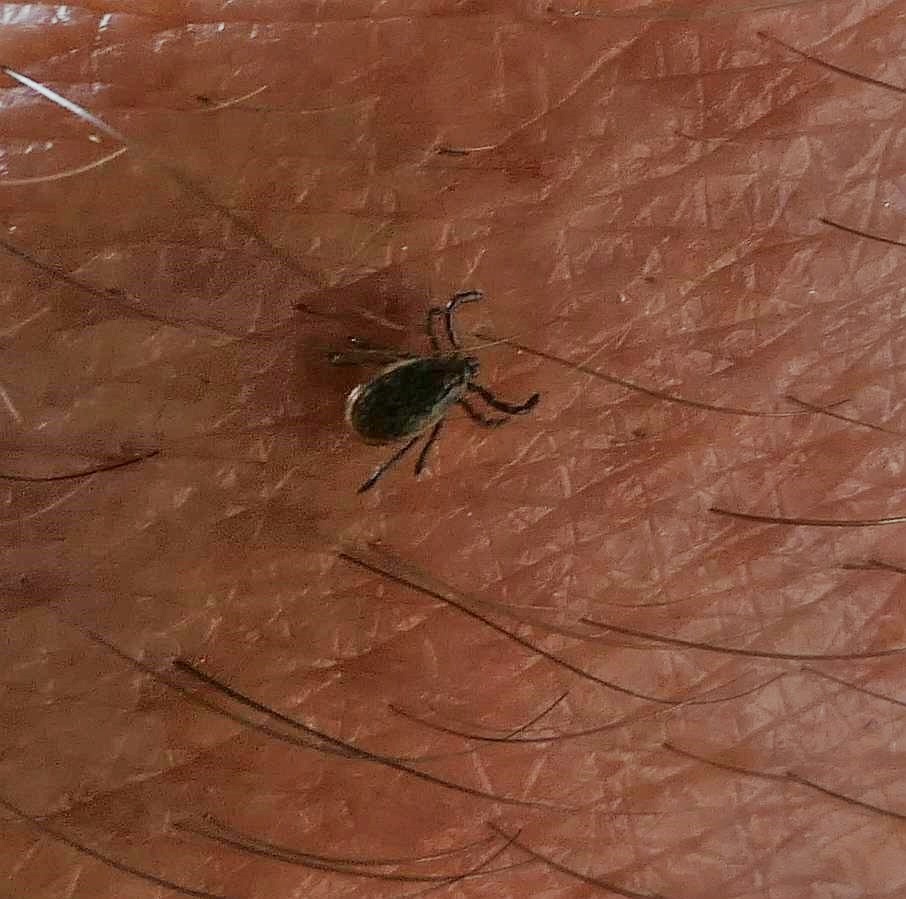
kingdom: Animalia
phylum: Arthropoda
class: Arachnida
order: Ixodida
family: Ixodidae
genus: Ixodes
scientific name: Ixodes scapularis
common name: Black legged tick
